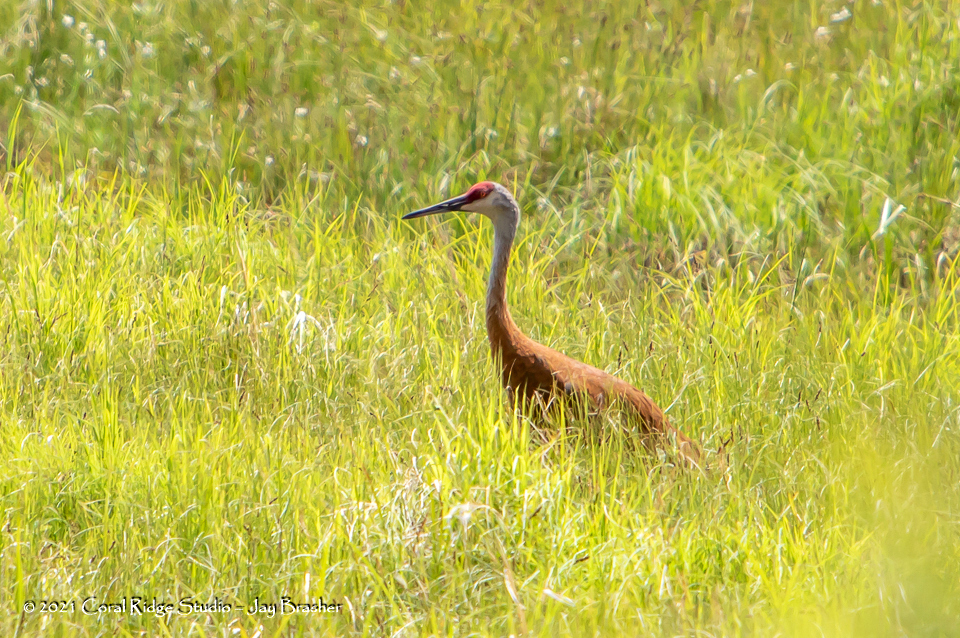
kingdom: Animalia
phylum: Chordata
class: Aves
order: Gruiformes
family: Gruidae
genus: Grus
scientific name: Grus canadensis
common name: Sandhill crane
